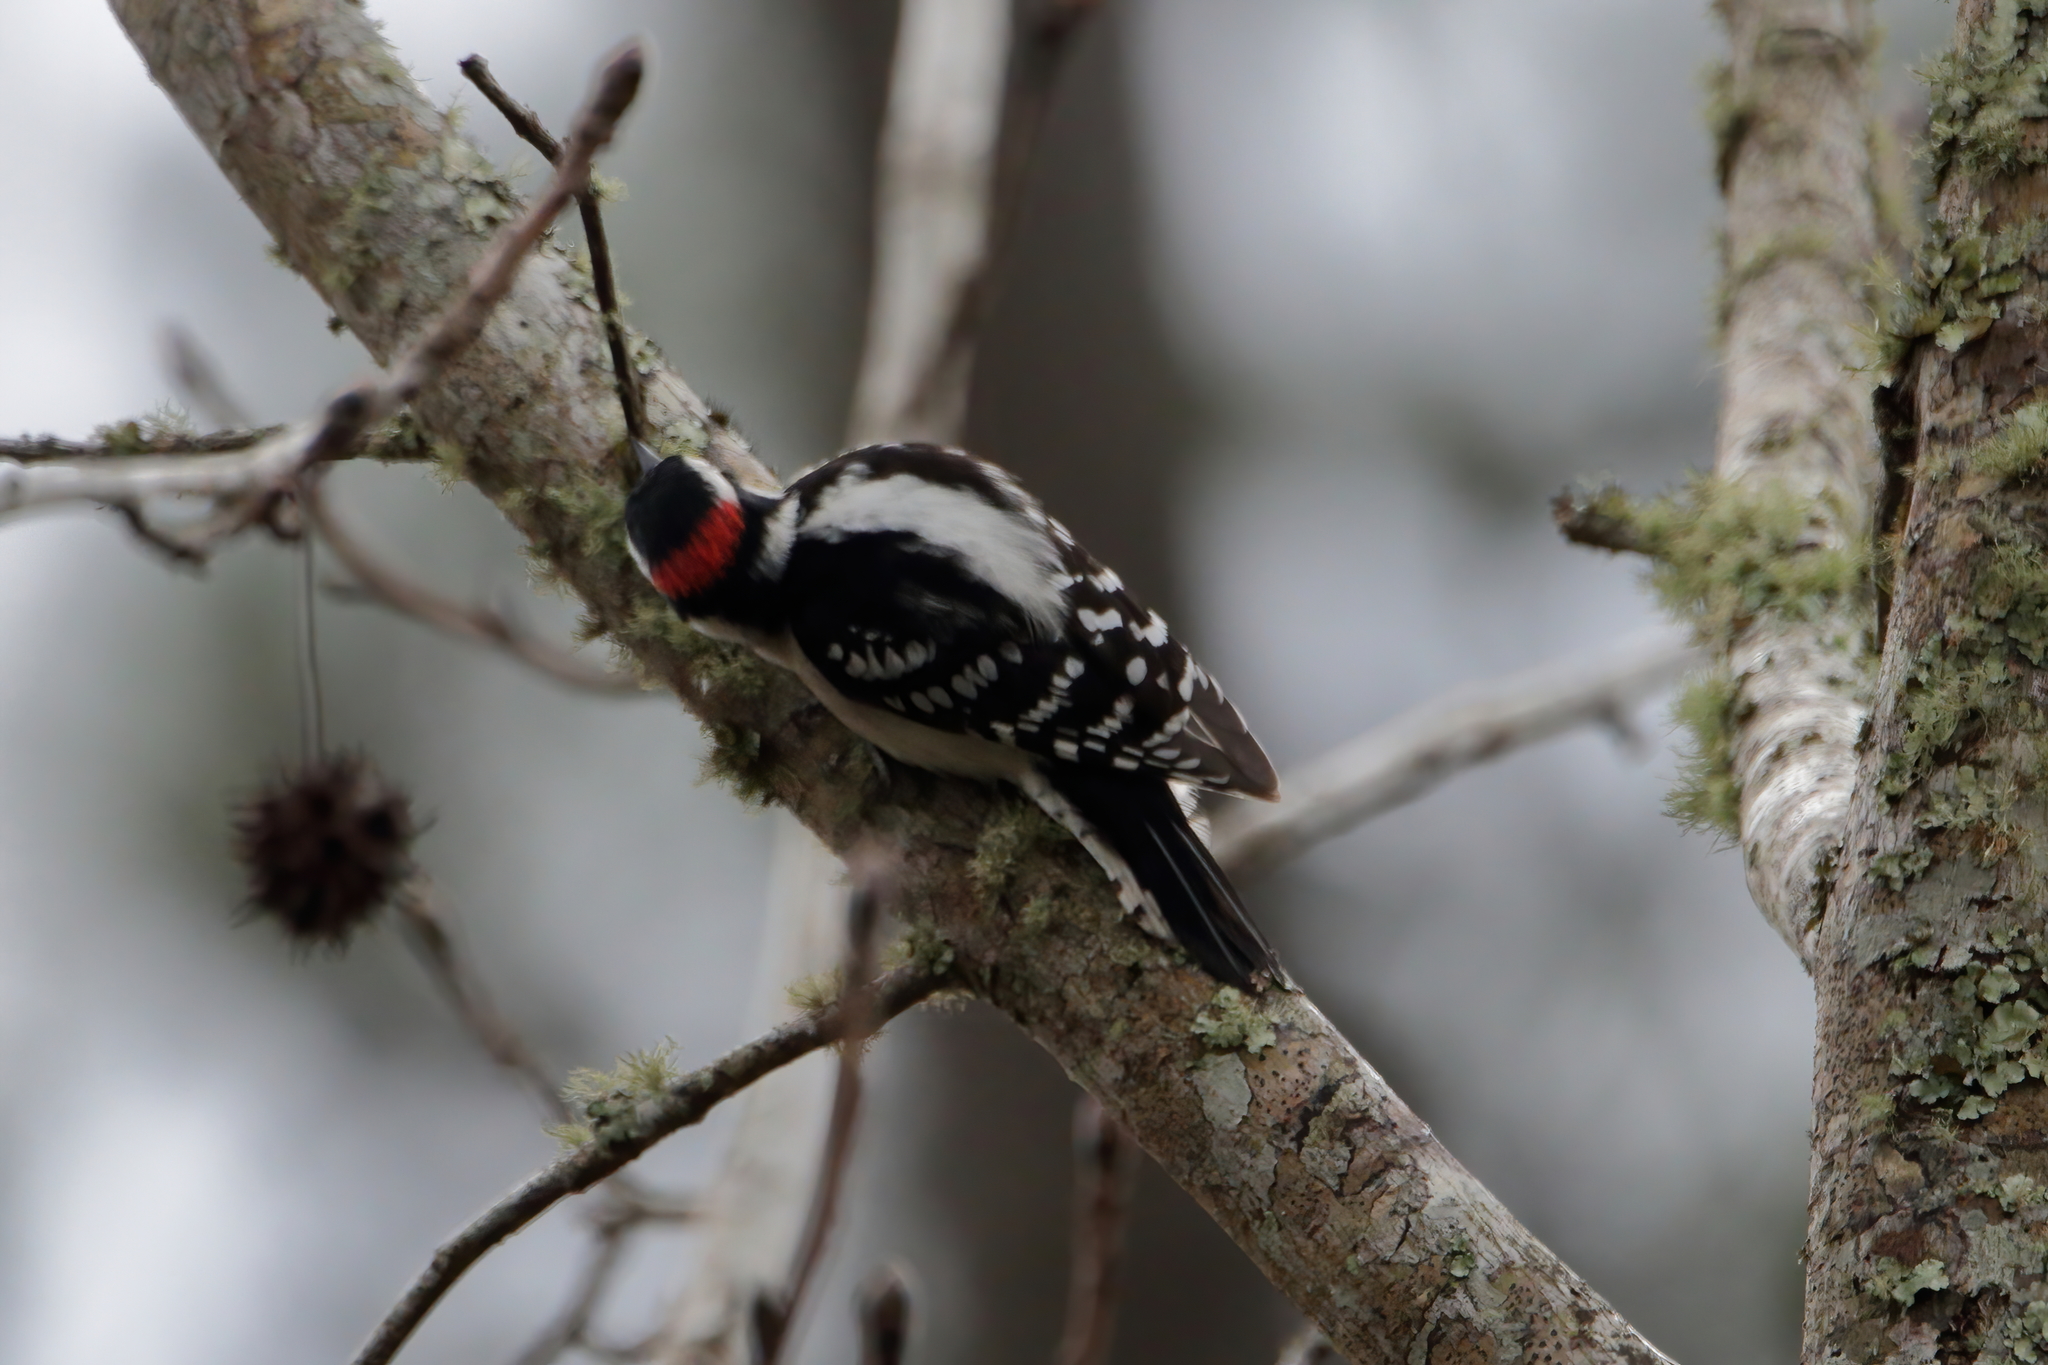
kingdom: Animalia
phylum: Chordata
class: Aves
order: Piciformes
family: Picidae
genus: Dryobates
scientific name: Dryobates pubescens
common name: Downy woodpecker
